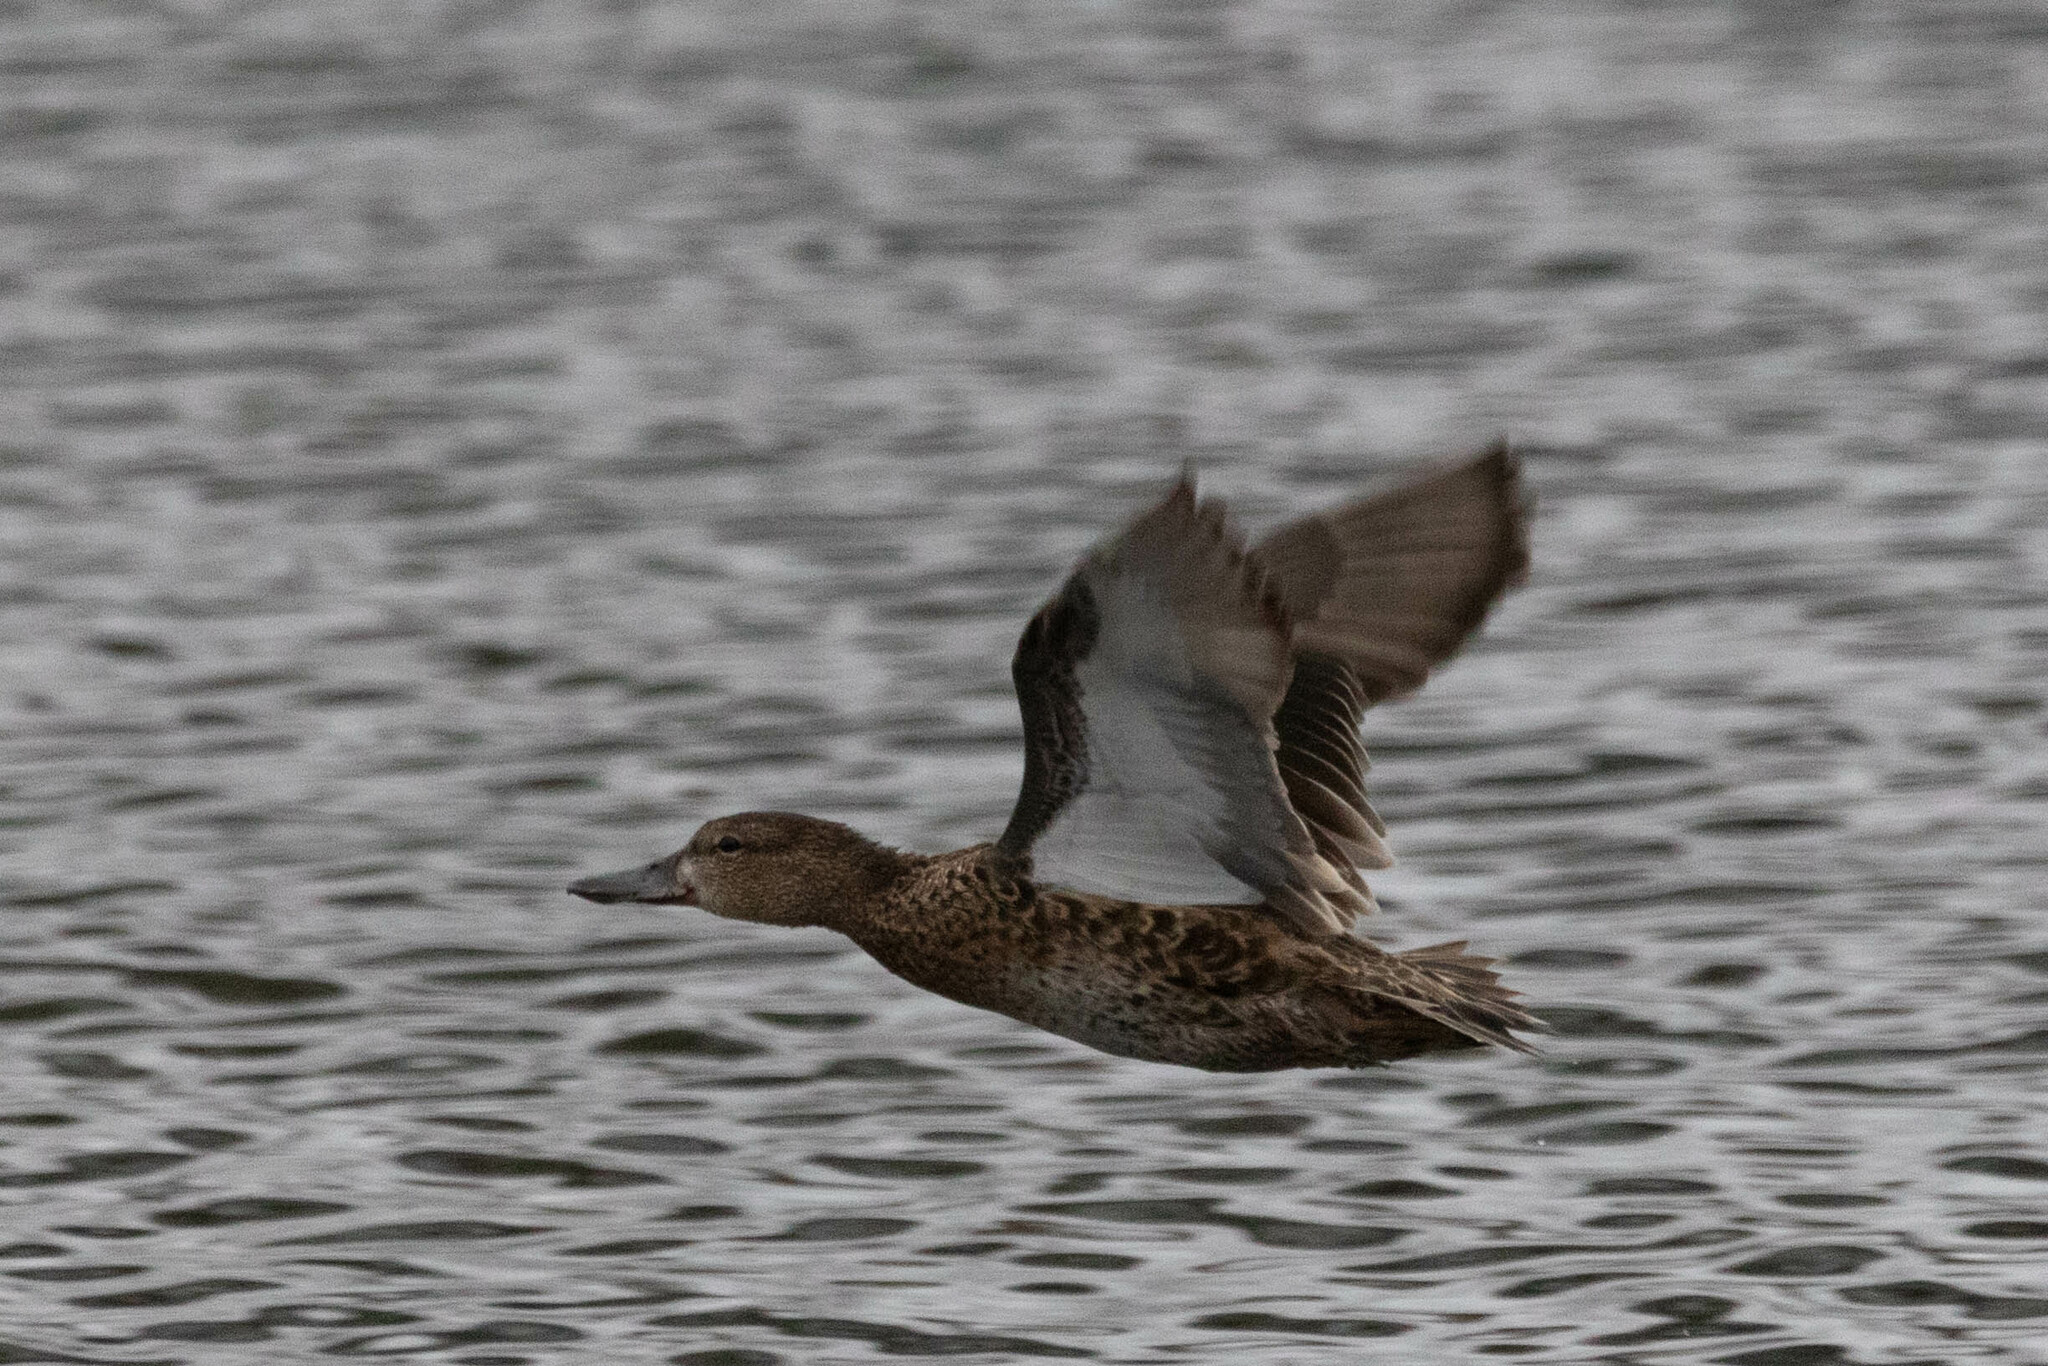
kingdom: Animalia
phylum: Chordata
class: Aves
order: Anseriformes
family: Anatidae
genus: Spatula
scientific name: Spatula discors
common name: Blue-winged teal
